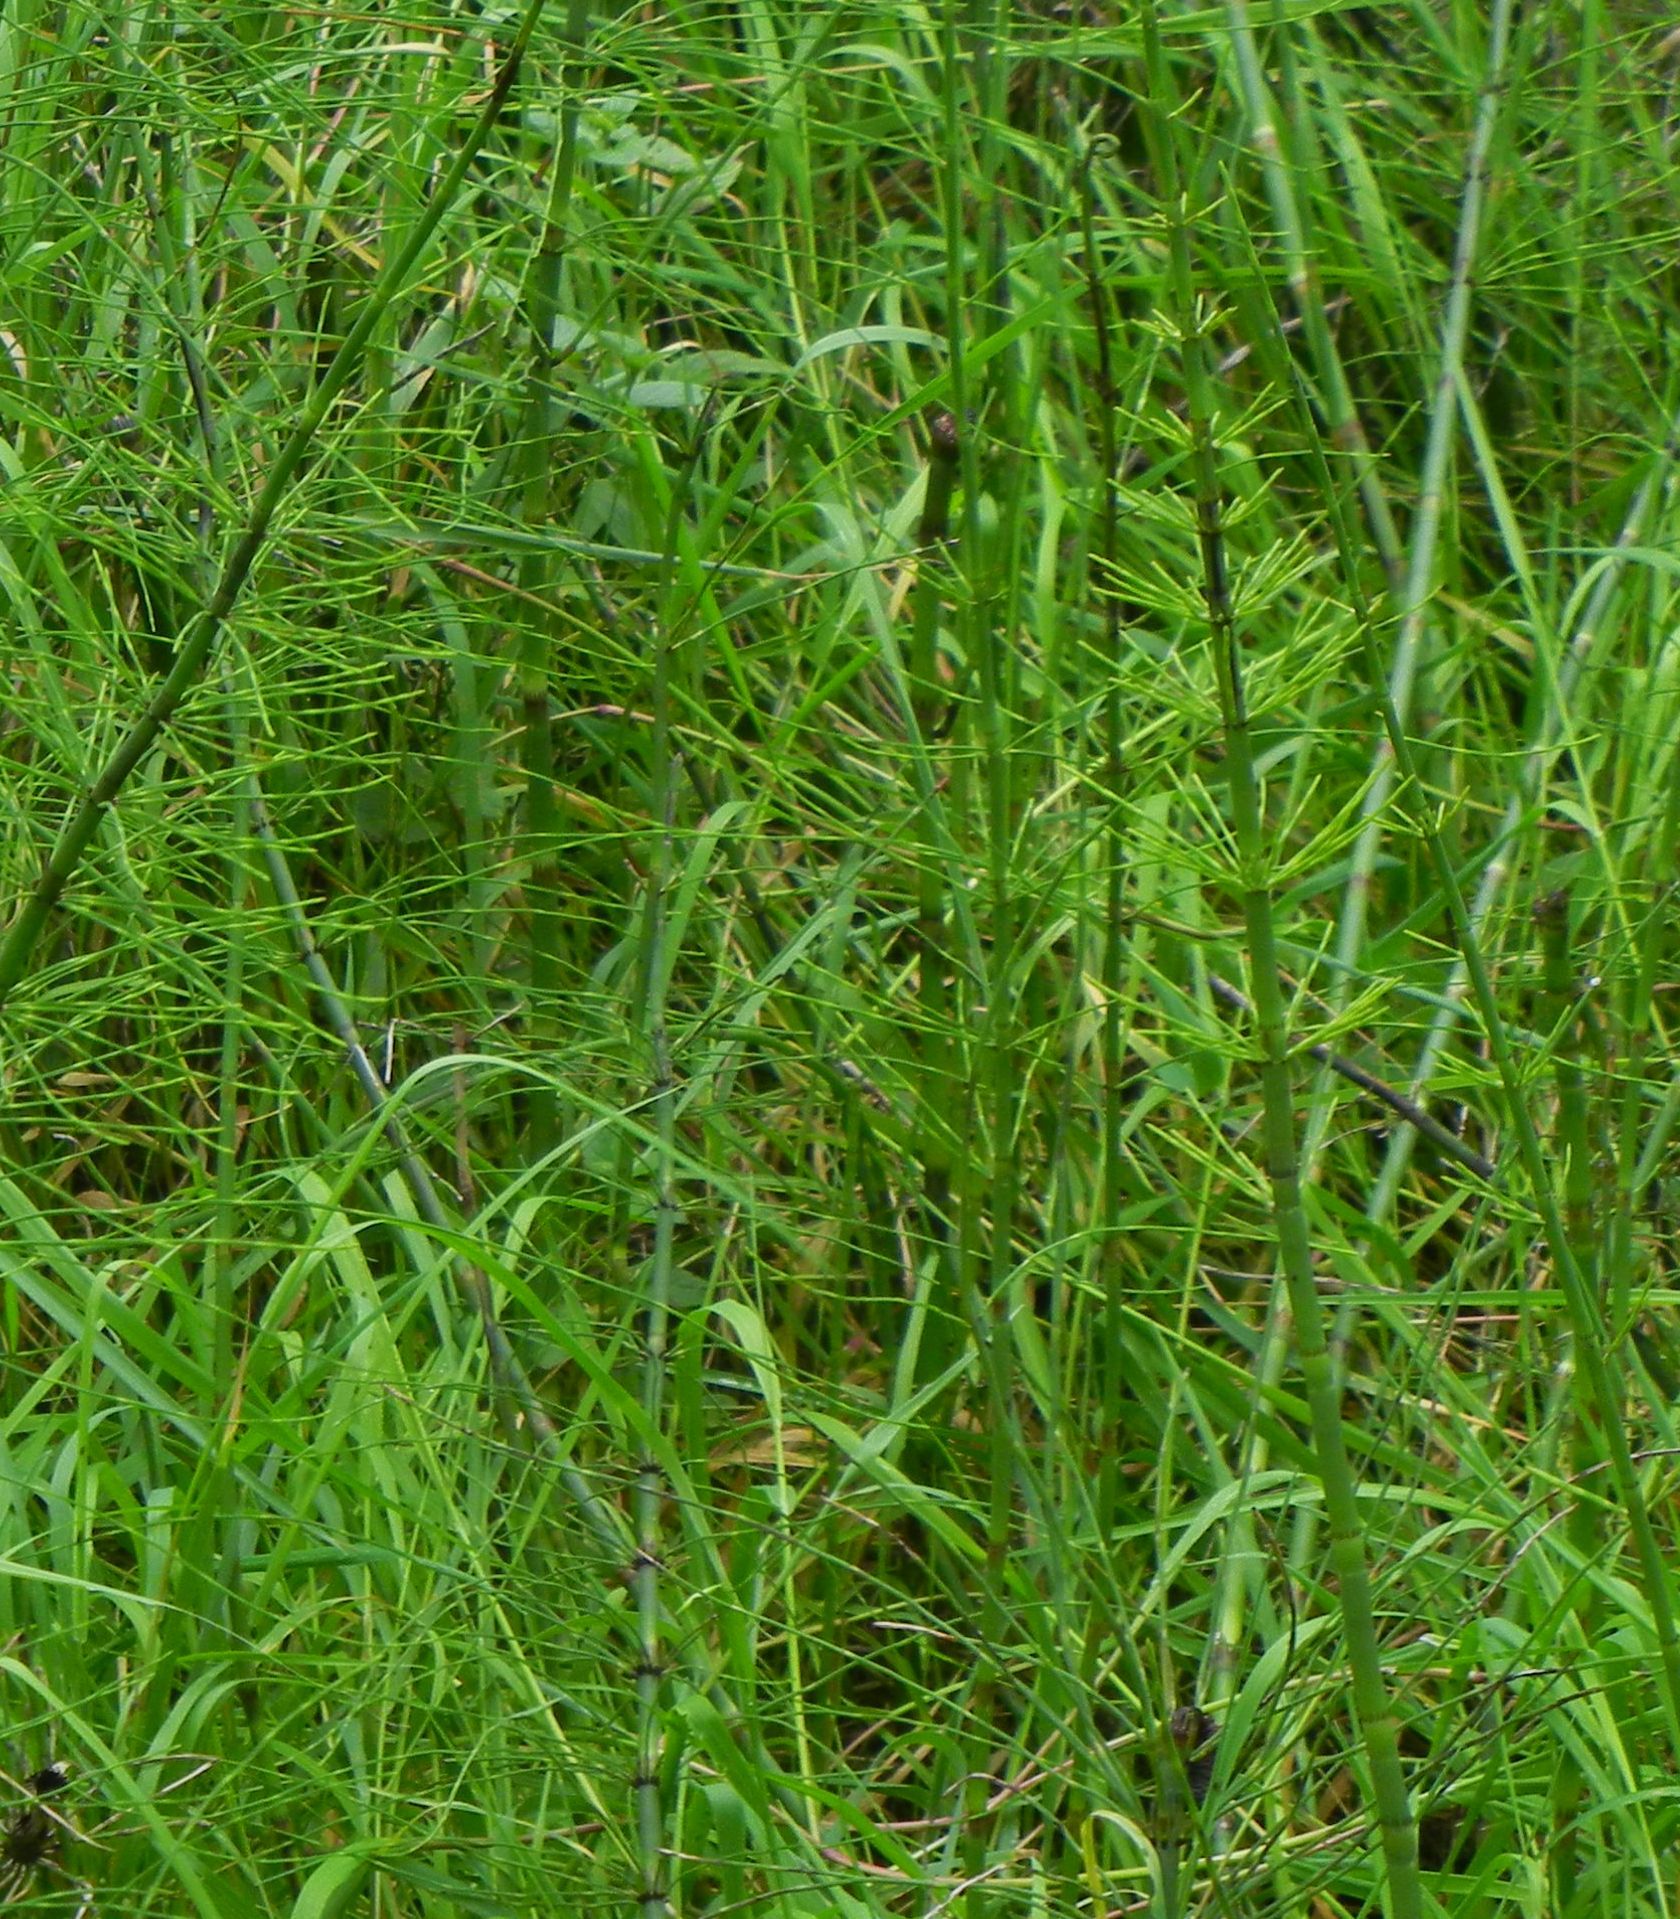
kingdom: Plantae
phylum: Tracheophyta
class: Polypodiopsida
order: Equisetales
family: Equisetaceae
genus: Equisetum
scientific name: Equisetum fluviatile
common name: Water horsetail
